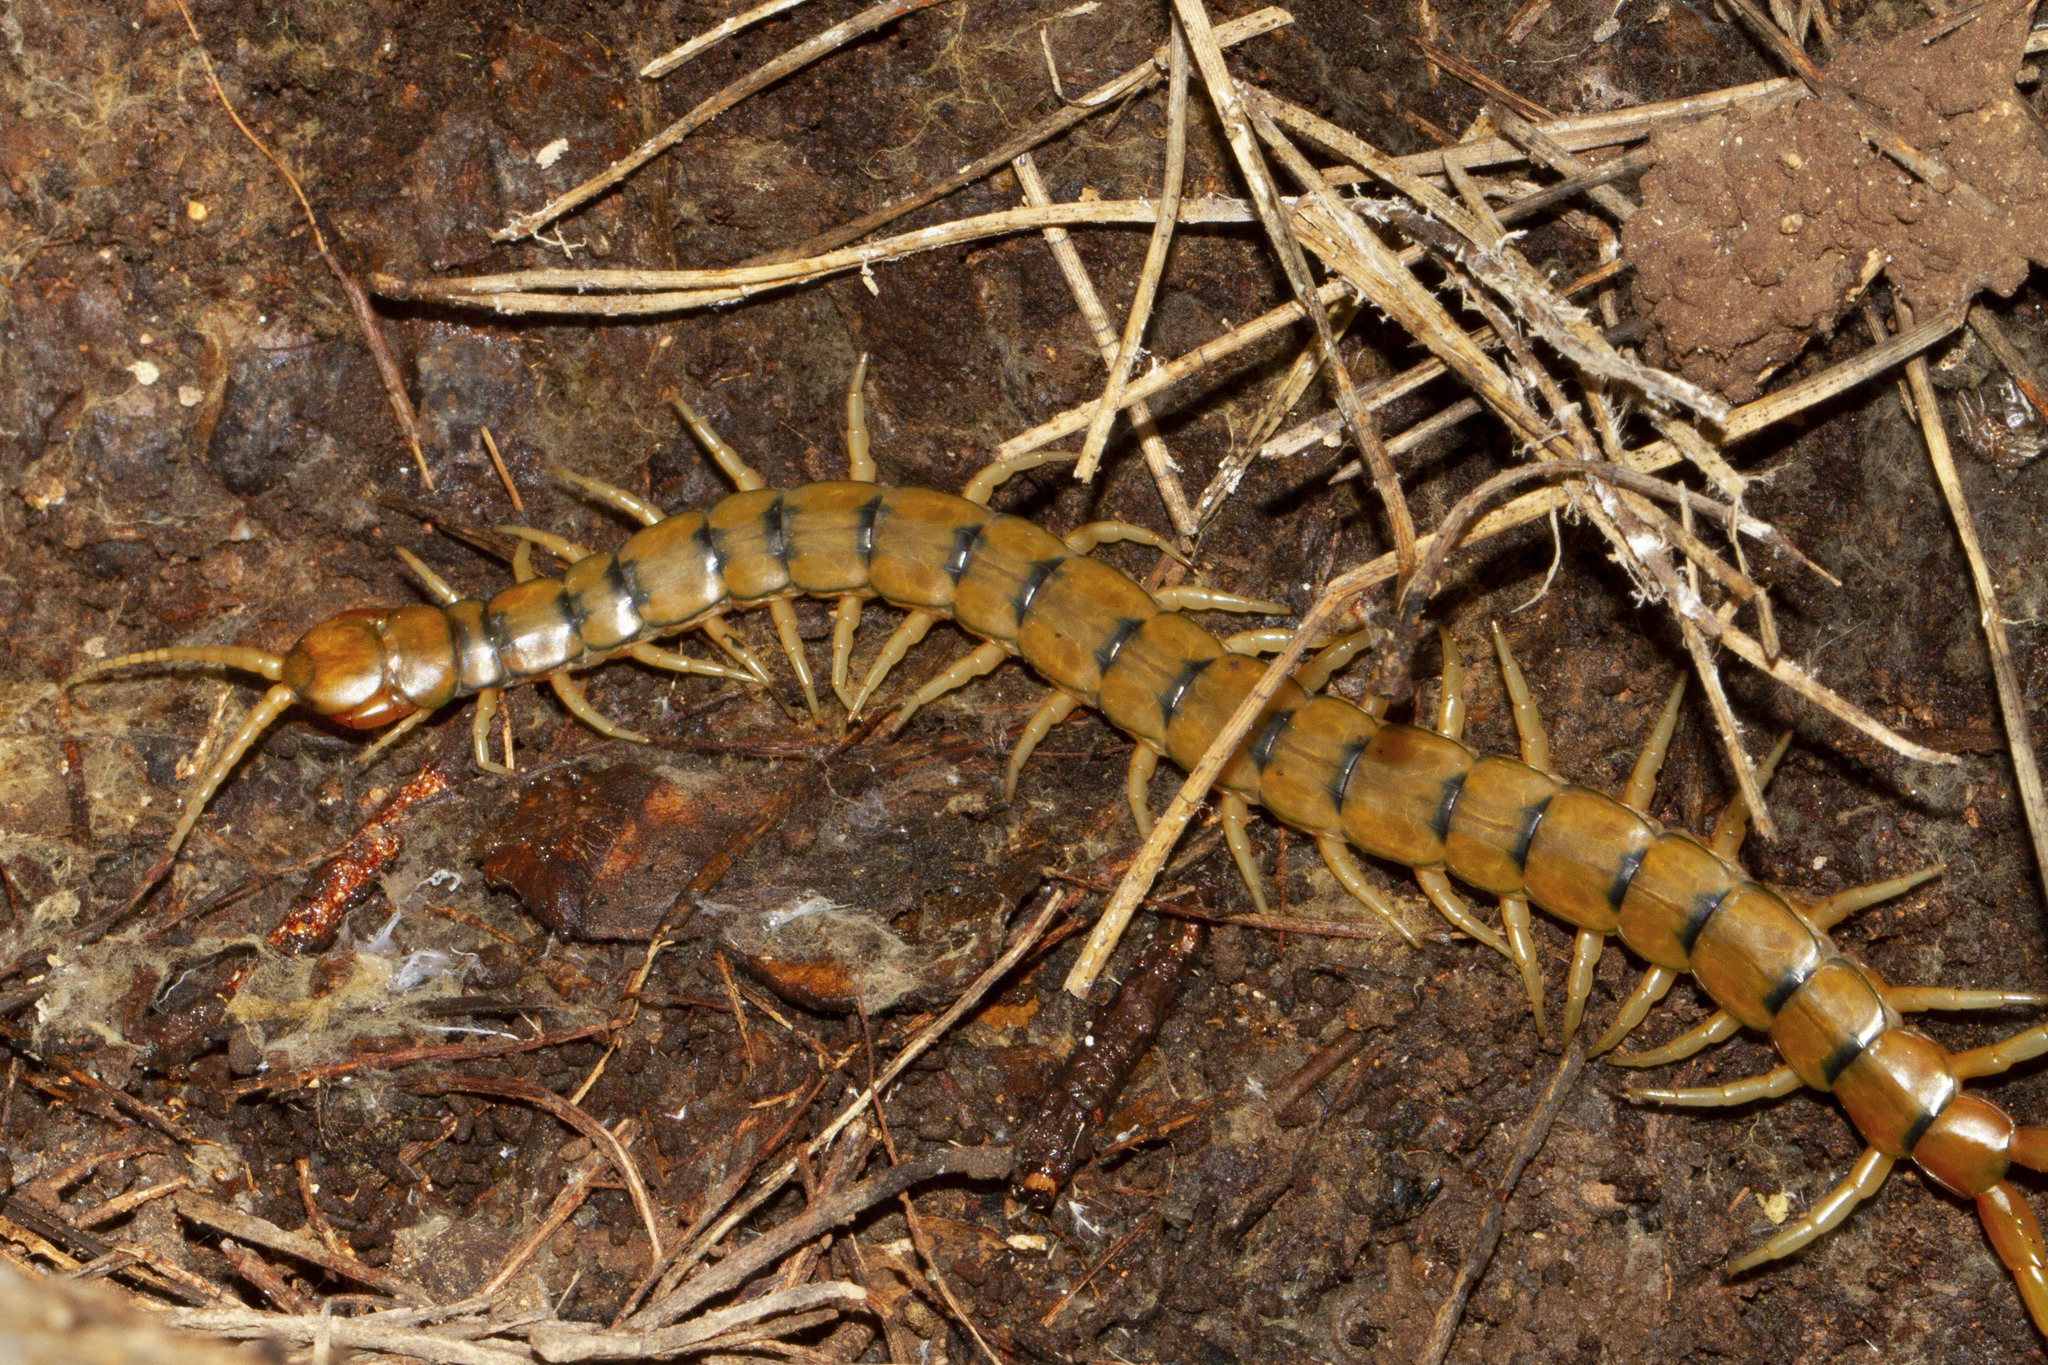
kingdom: Animalia
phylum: Arthropoda
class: Chilopoda
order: Scolopendromorpha
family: Scolopendridae
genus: Scolopendra
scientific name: Scolopendra cingulata
